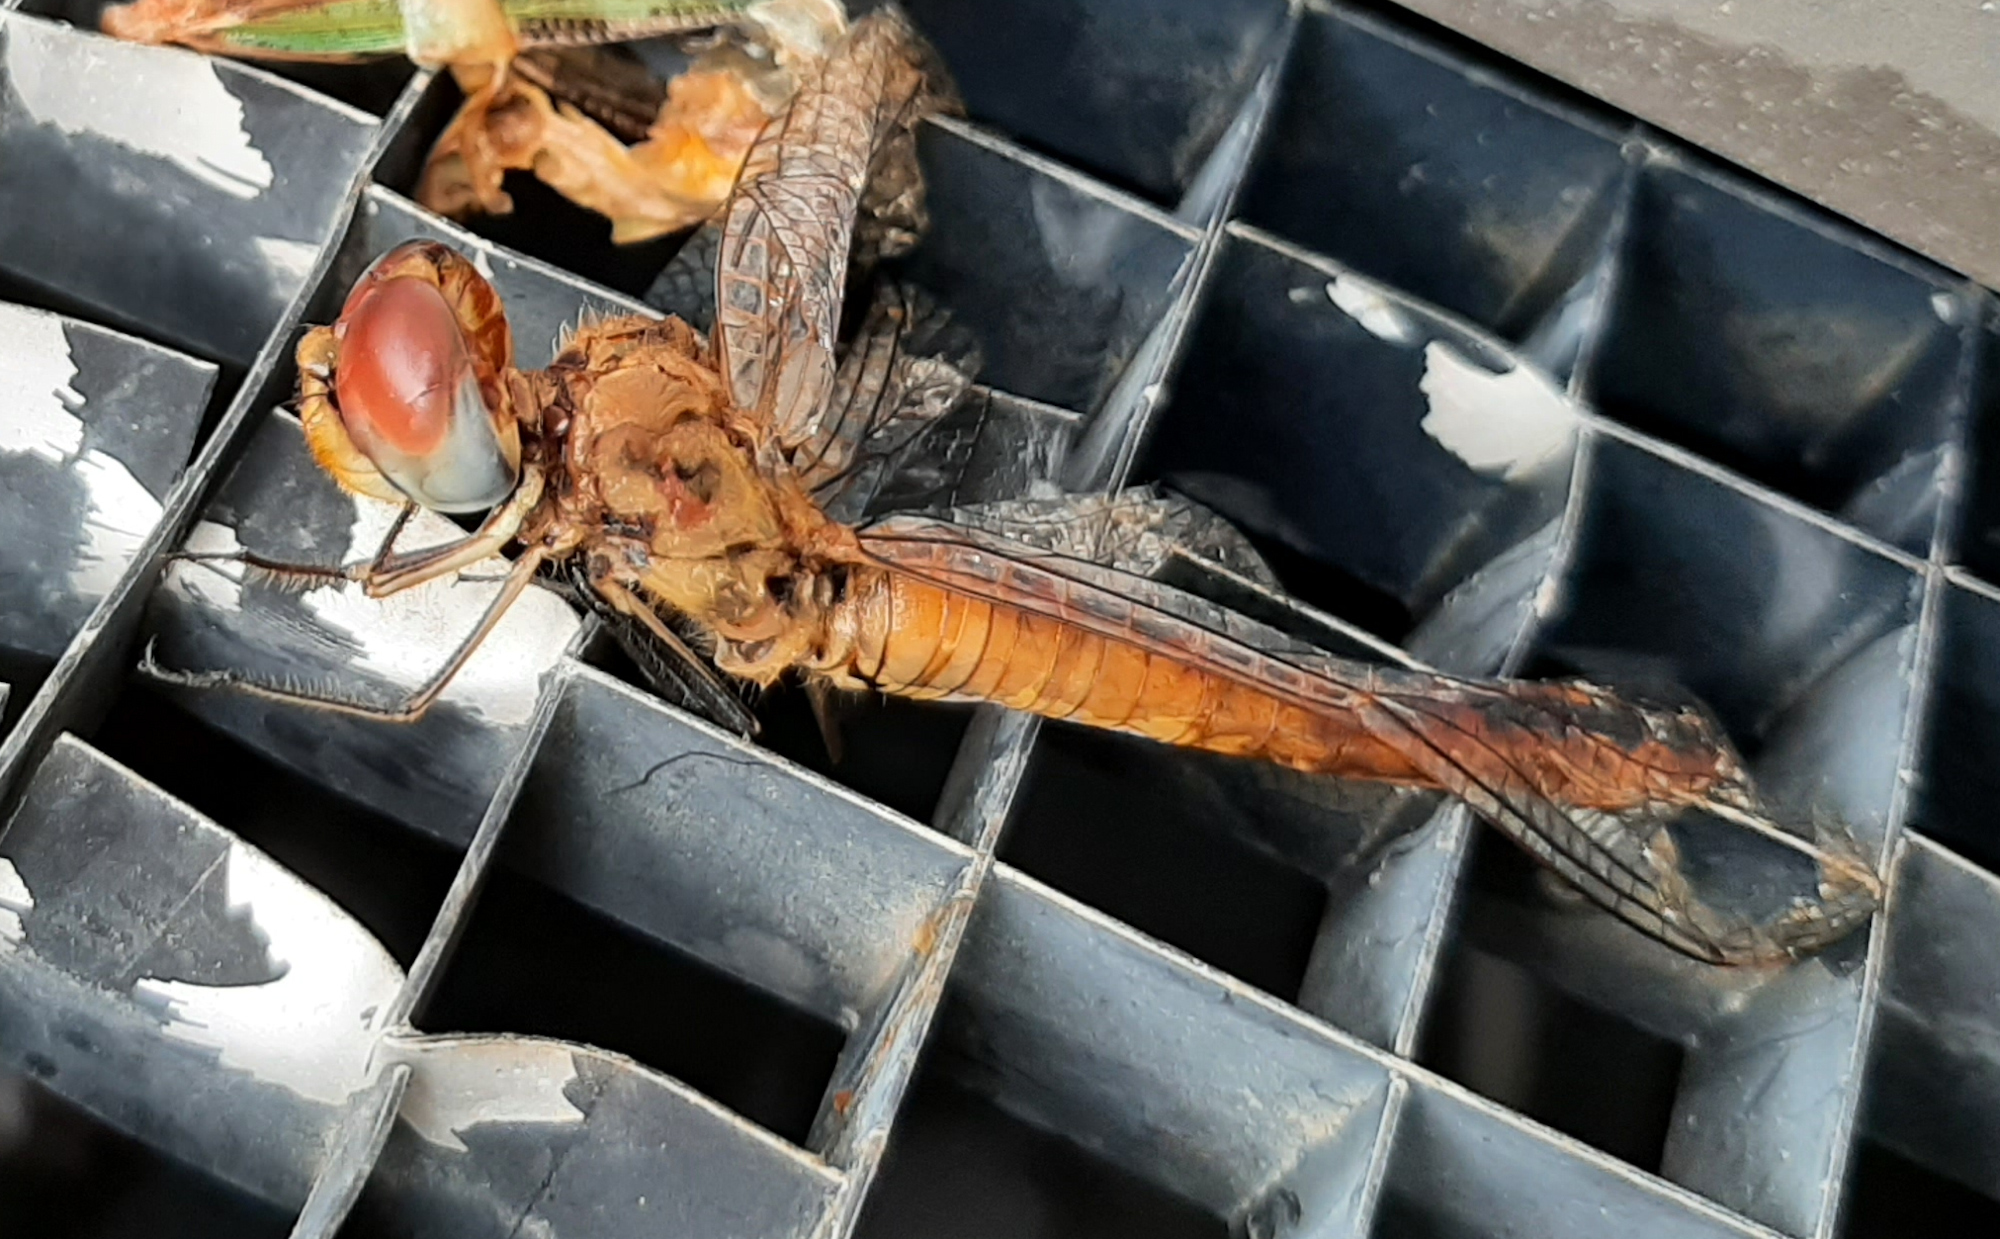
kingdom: Animalia
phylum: Arthropoda
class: Insecta
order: Odonata
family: Libellulidae
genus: Pantala
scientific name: Pantala flavescens
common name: Wandering glider
